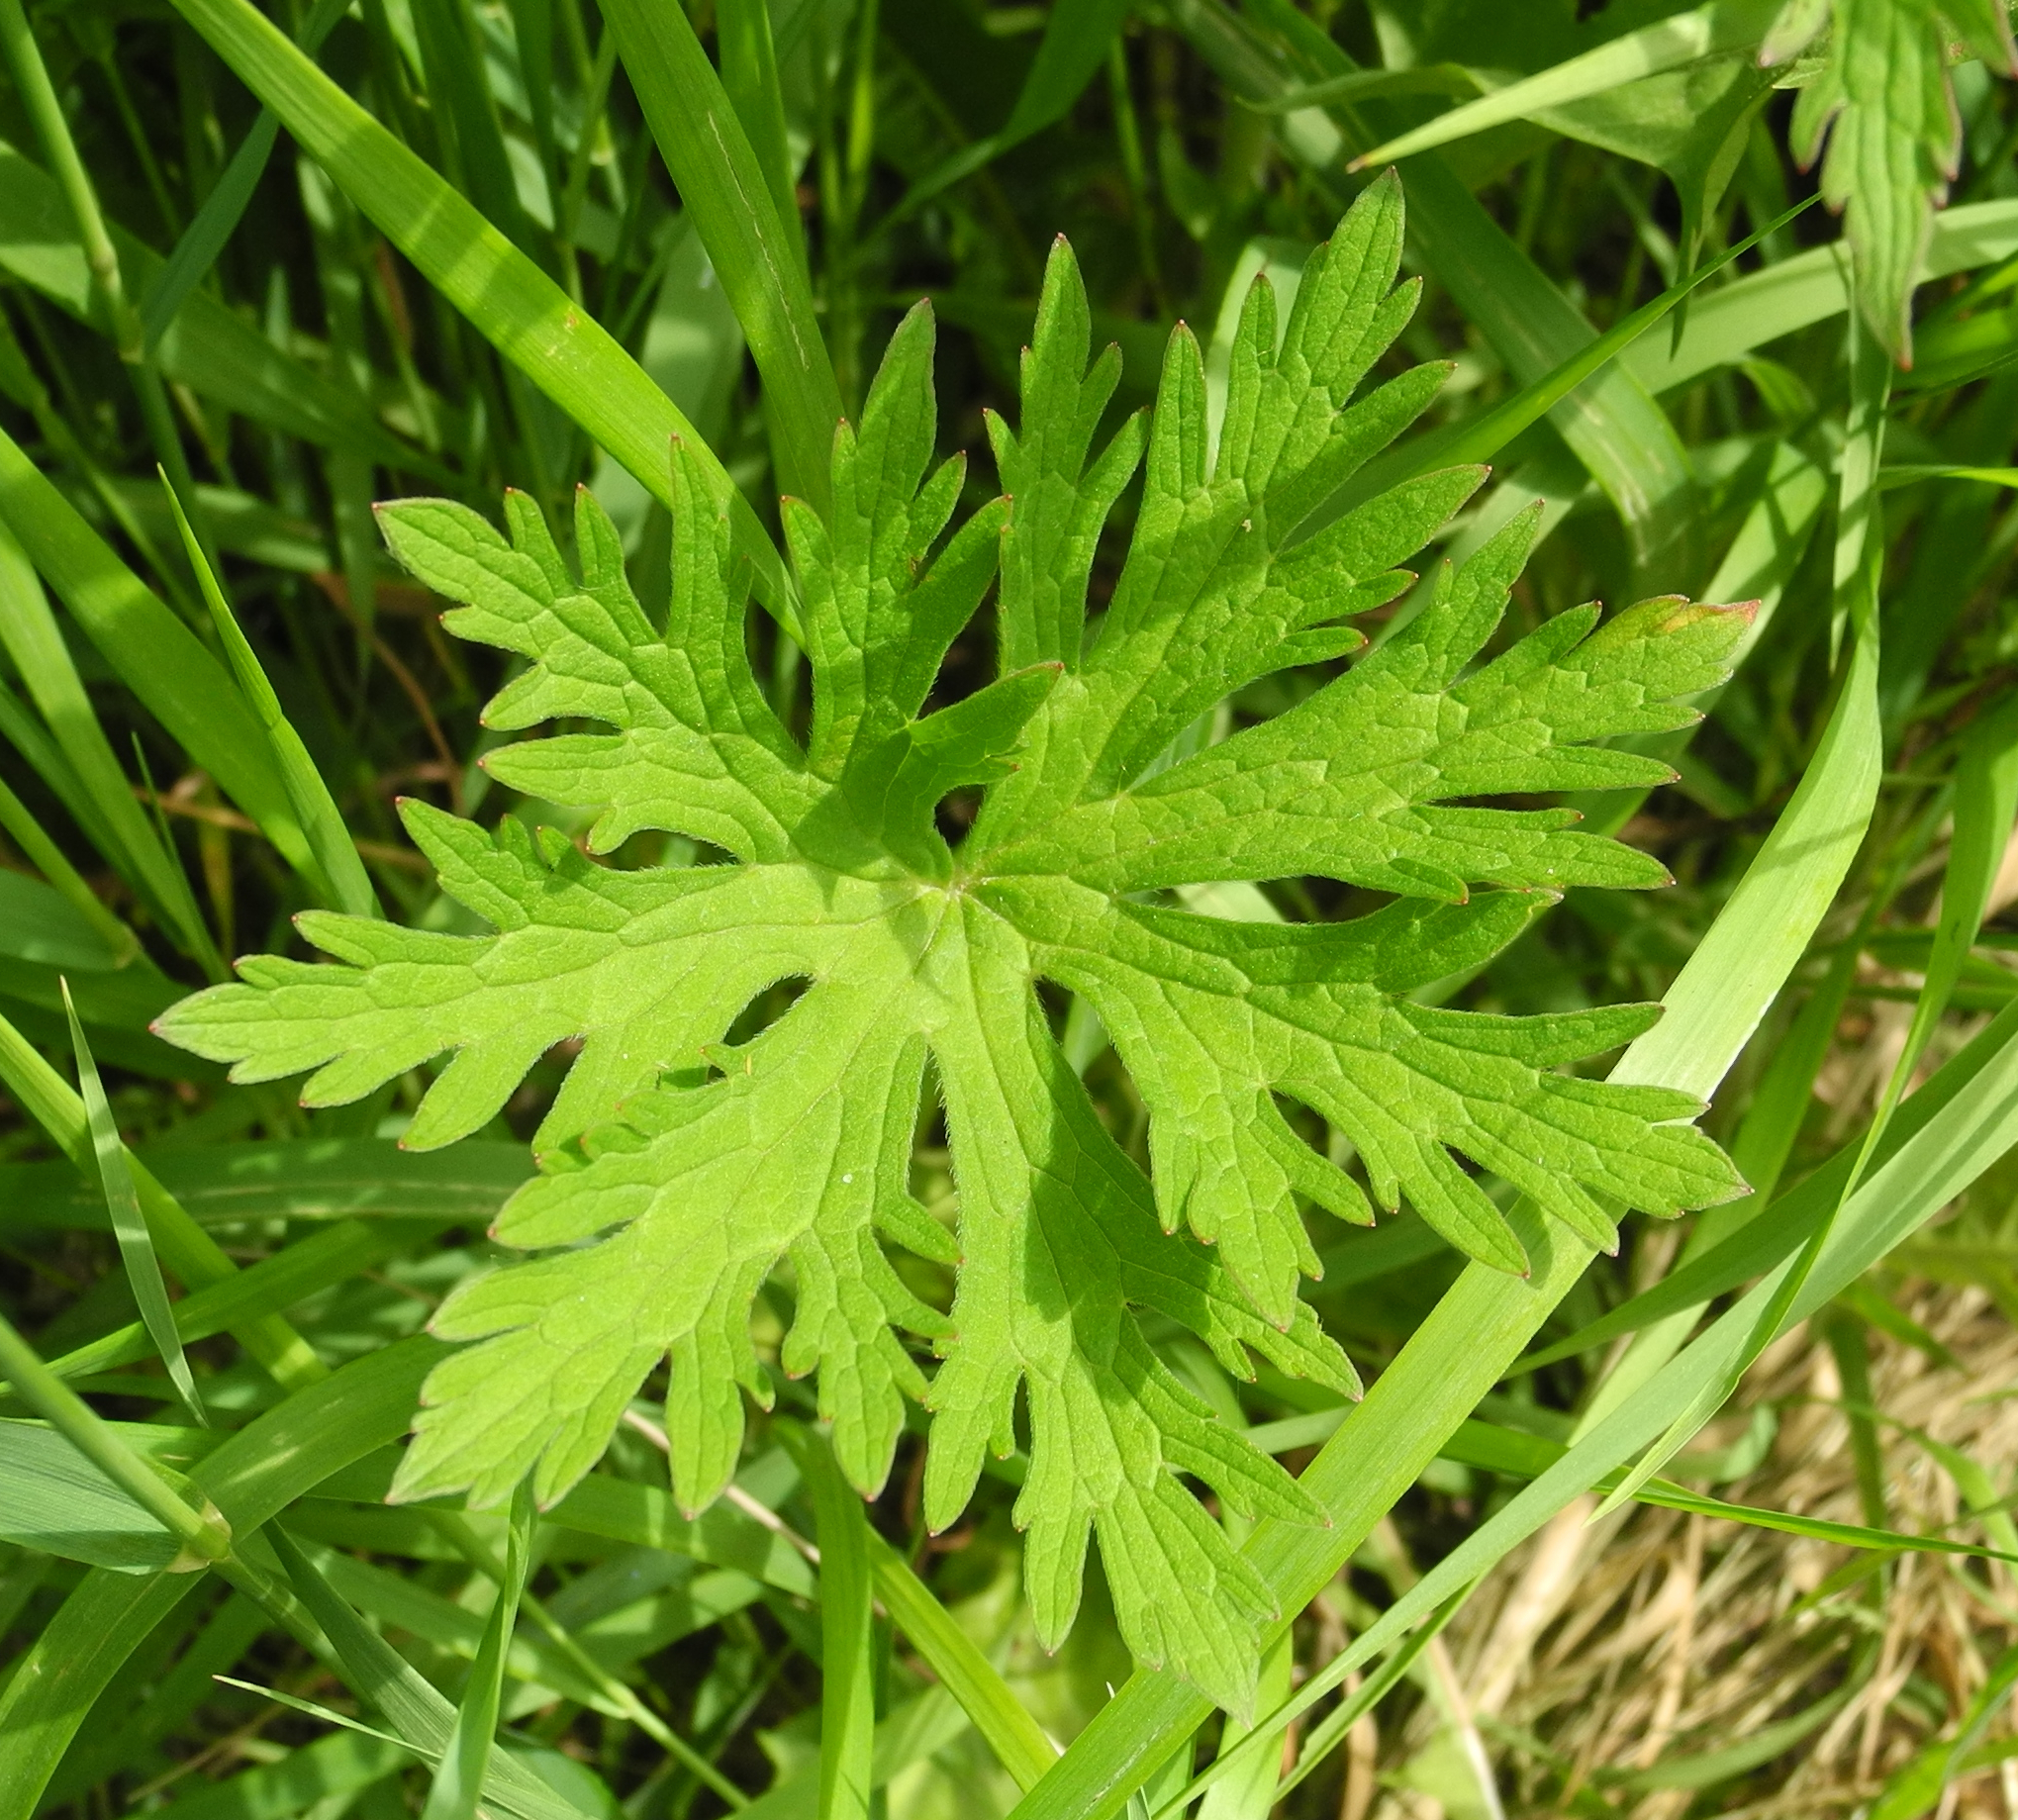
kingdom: Plantae
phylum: Tracheophyta
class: Magnoliopsida
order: Geraniales
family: Geraniaceae
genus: Geranium
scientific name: Geranium pratense
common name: Meadow crane's-bill
